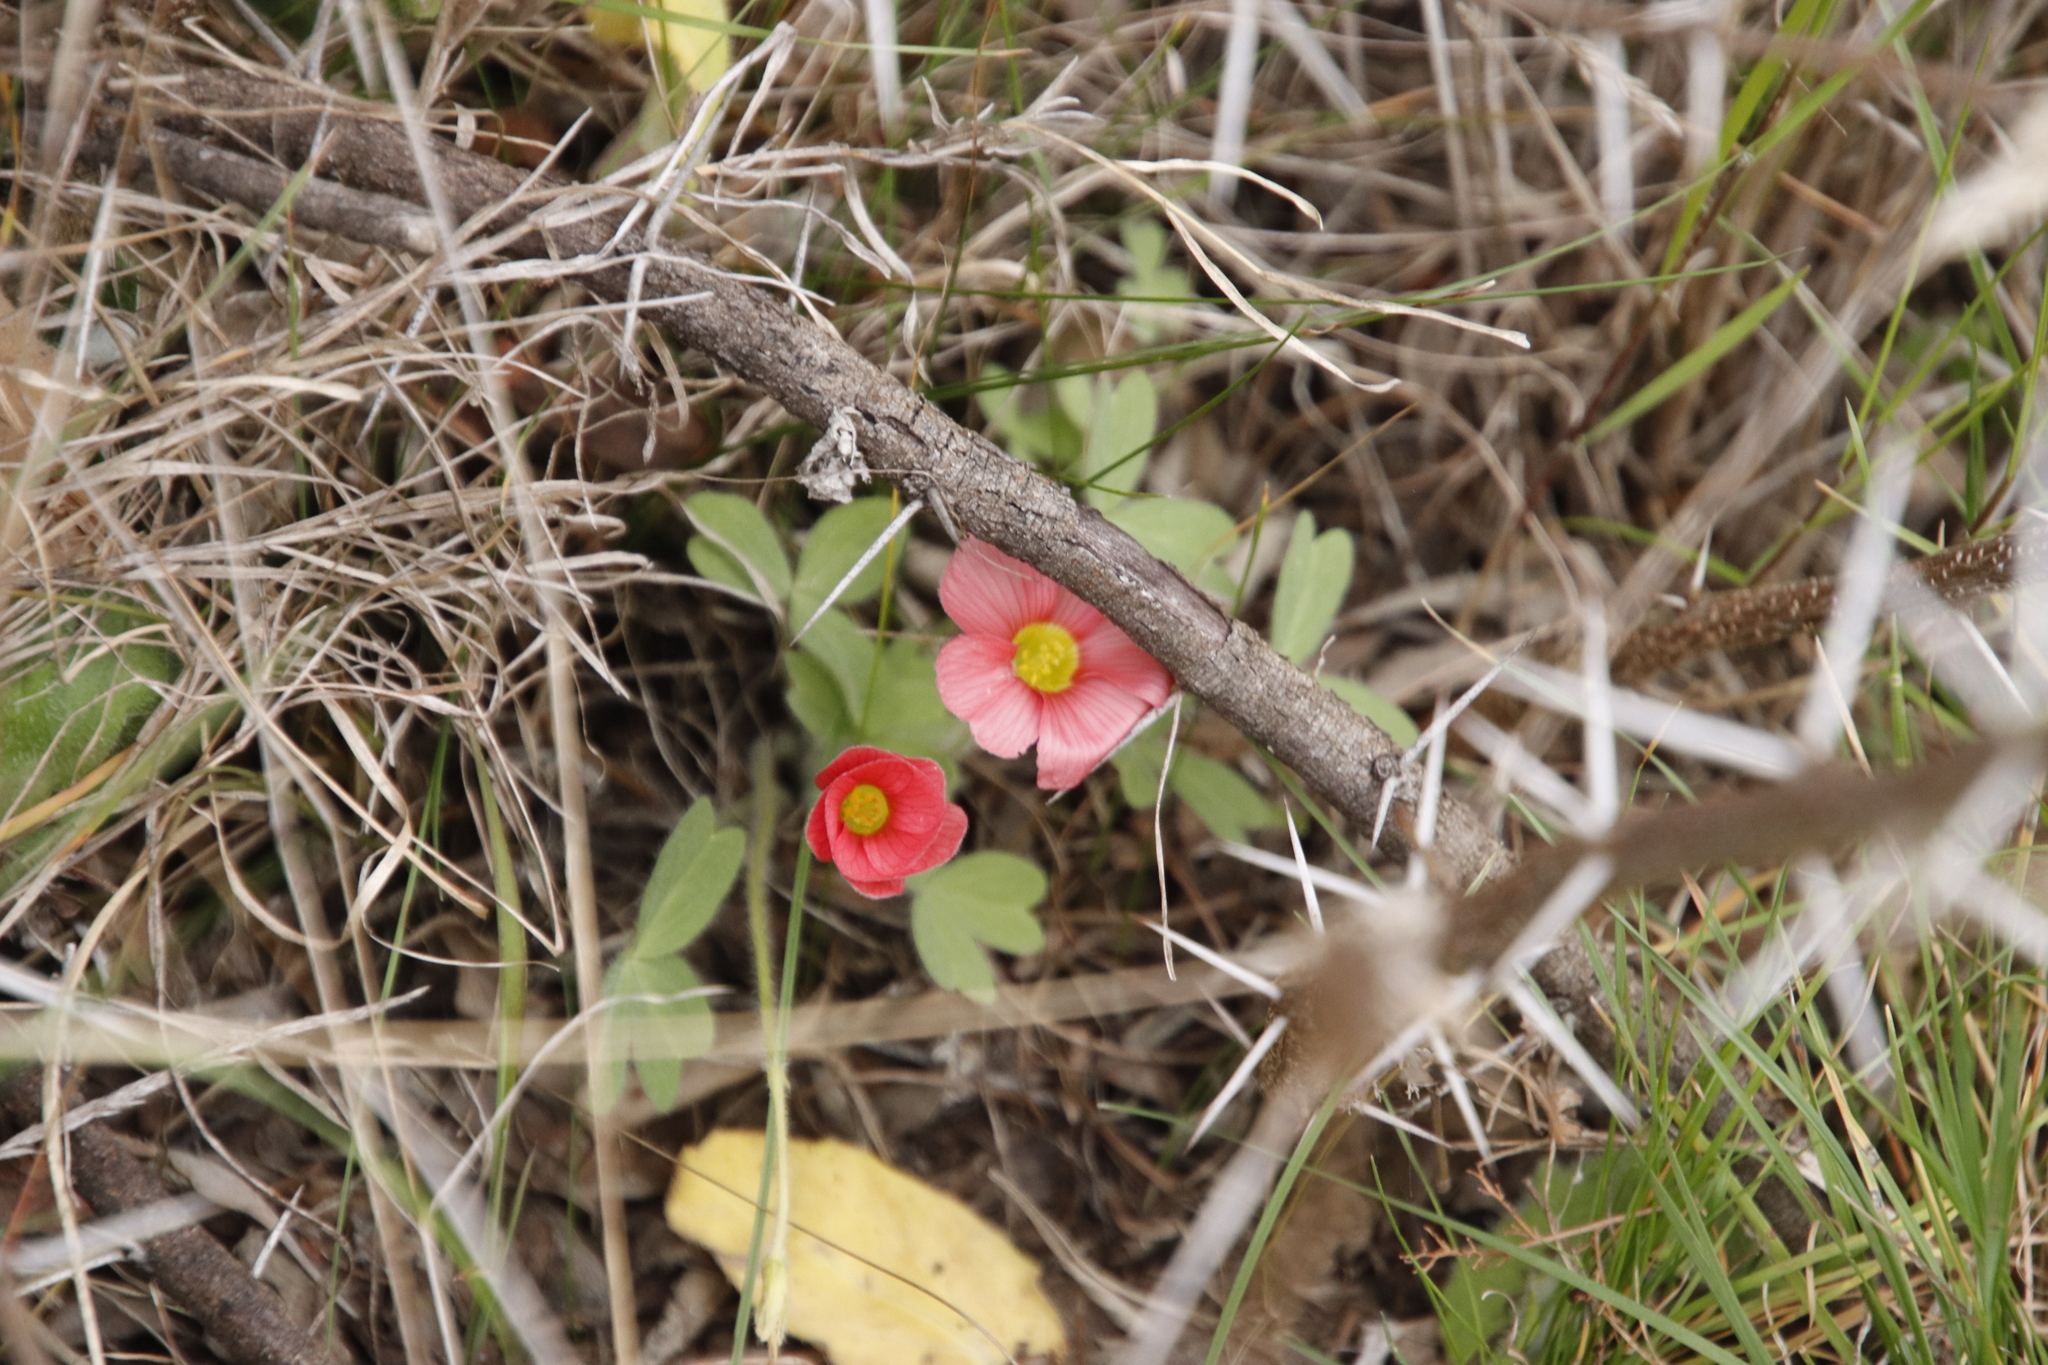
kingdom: Plantae
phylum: Tracheophyta
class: Magnoliopsida
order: Oxalidales
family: Oxalidaceae
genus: Oxalis
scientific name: Oxalis obtusa
